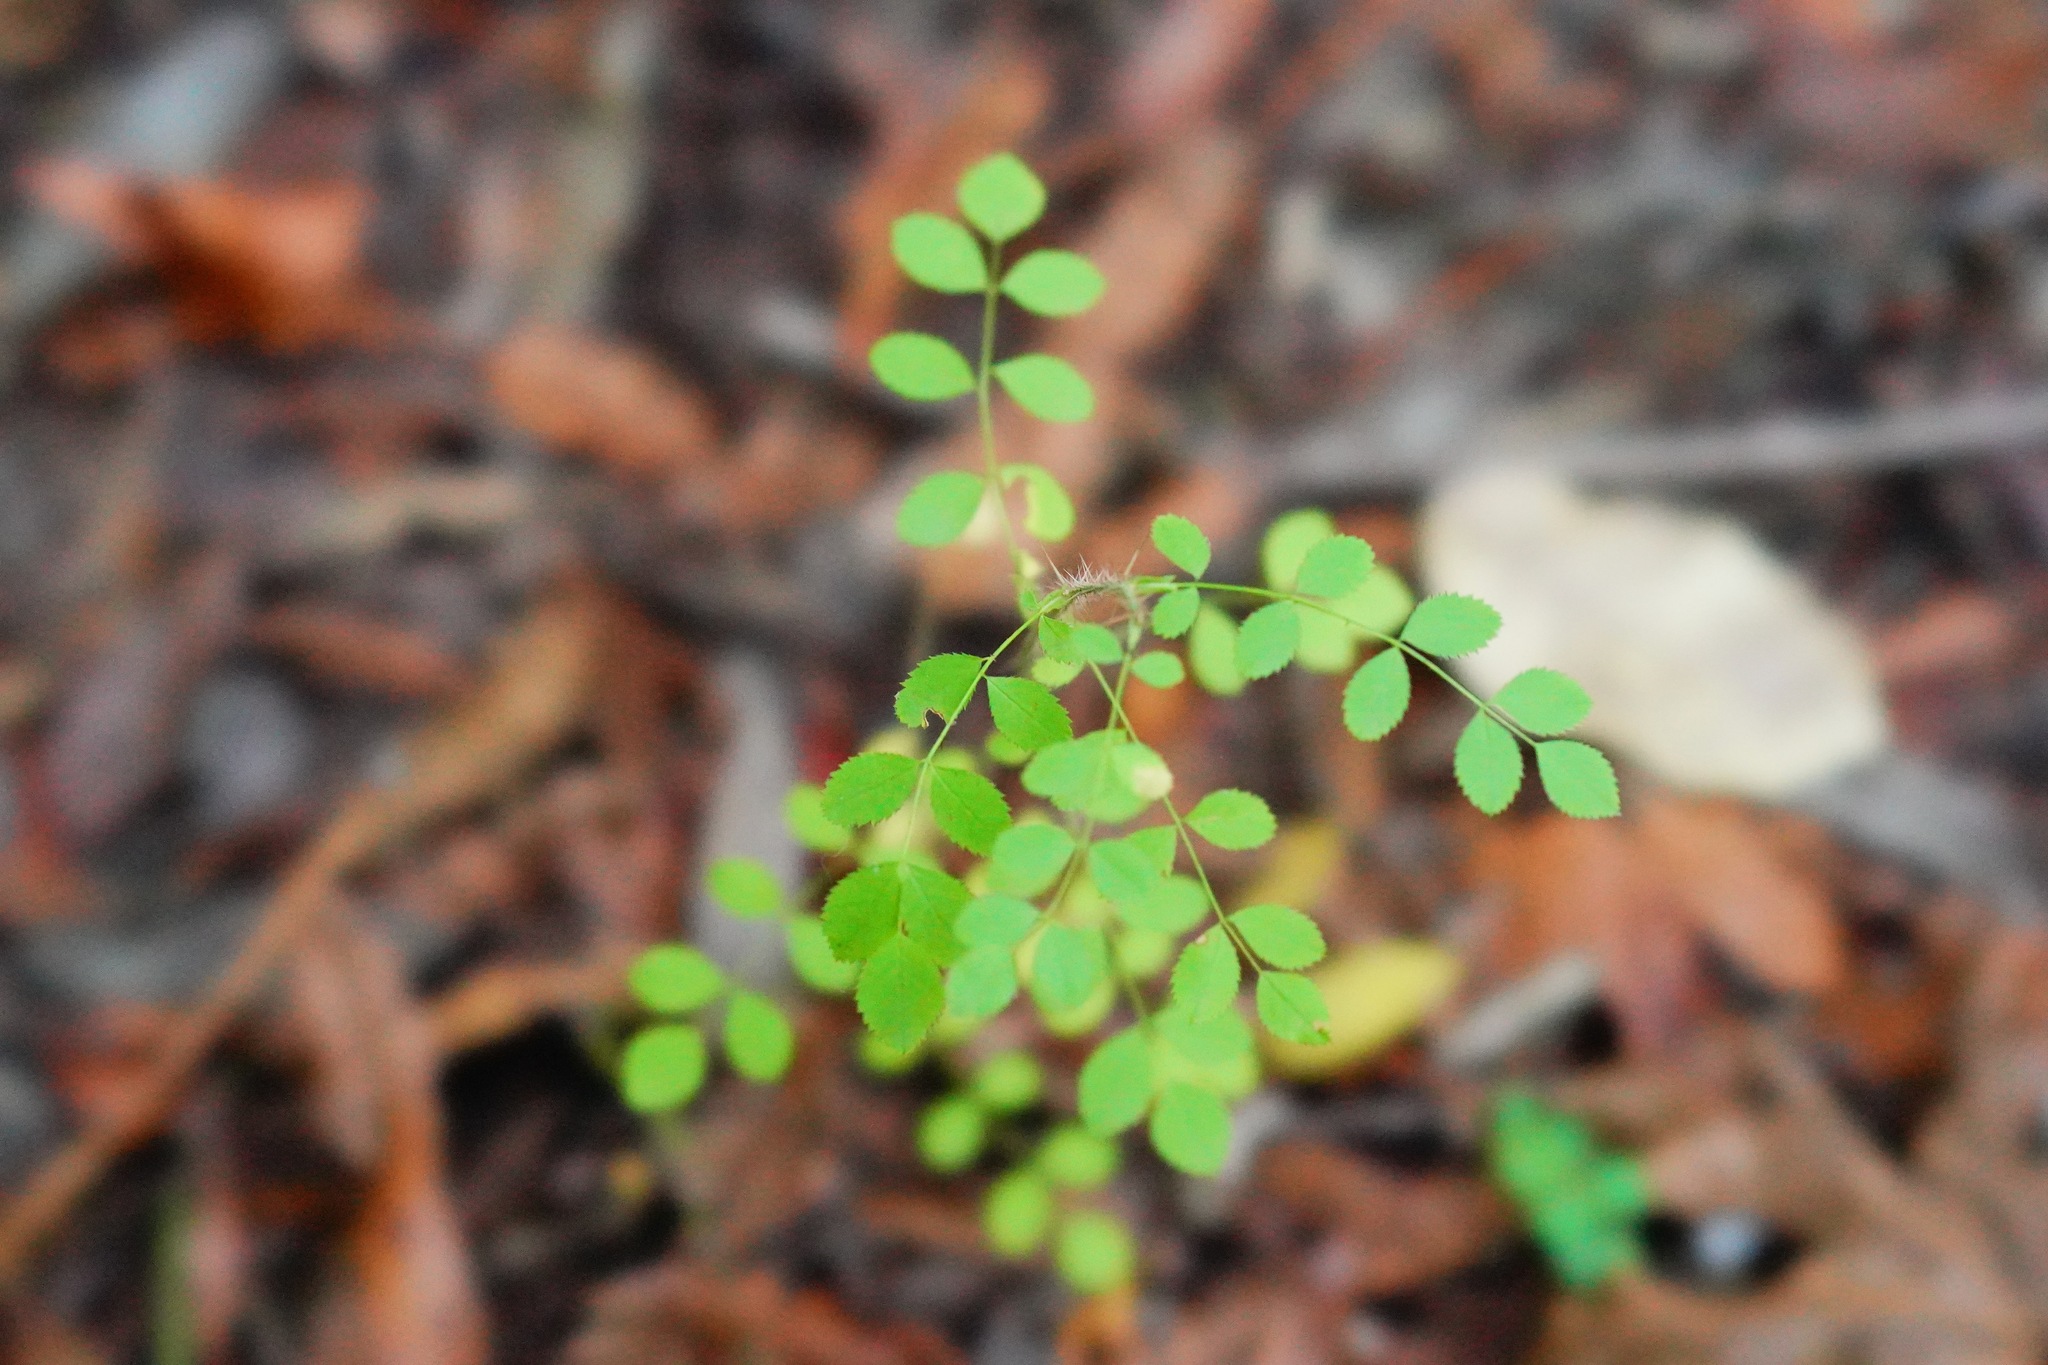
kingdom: Plantae
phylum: Tracheophyta
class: Magnoliopsida
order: Rosales
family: Rosaceae
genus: Rosa
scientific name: Rosa gymnocarpa
